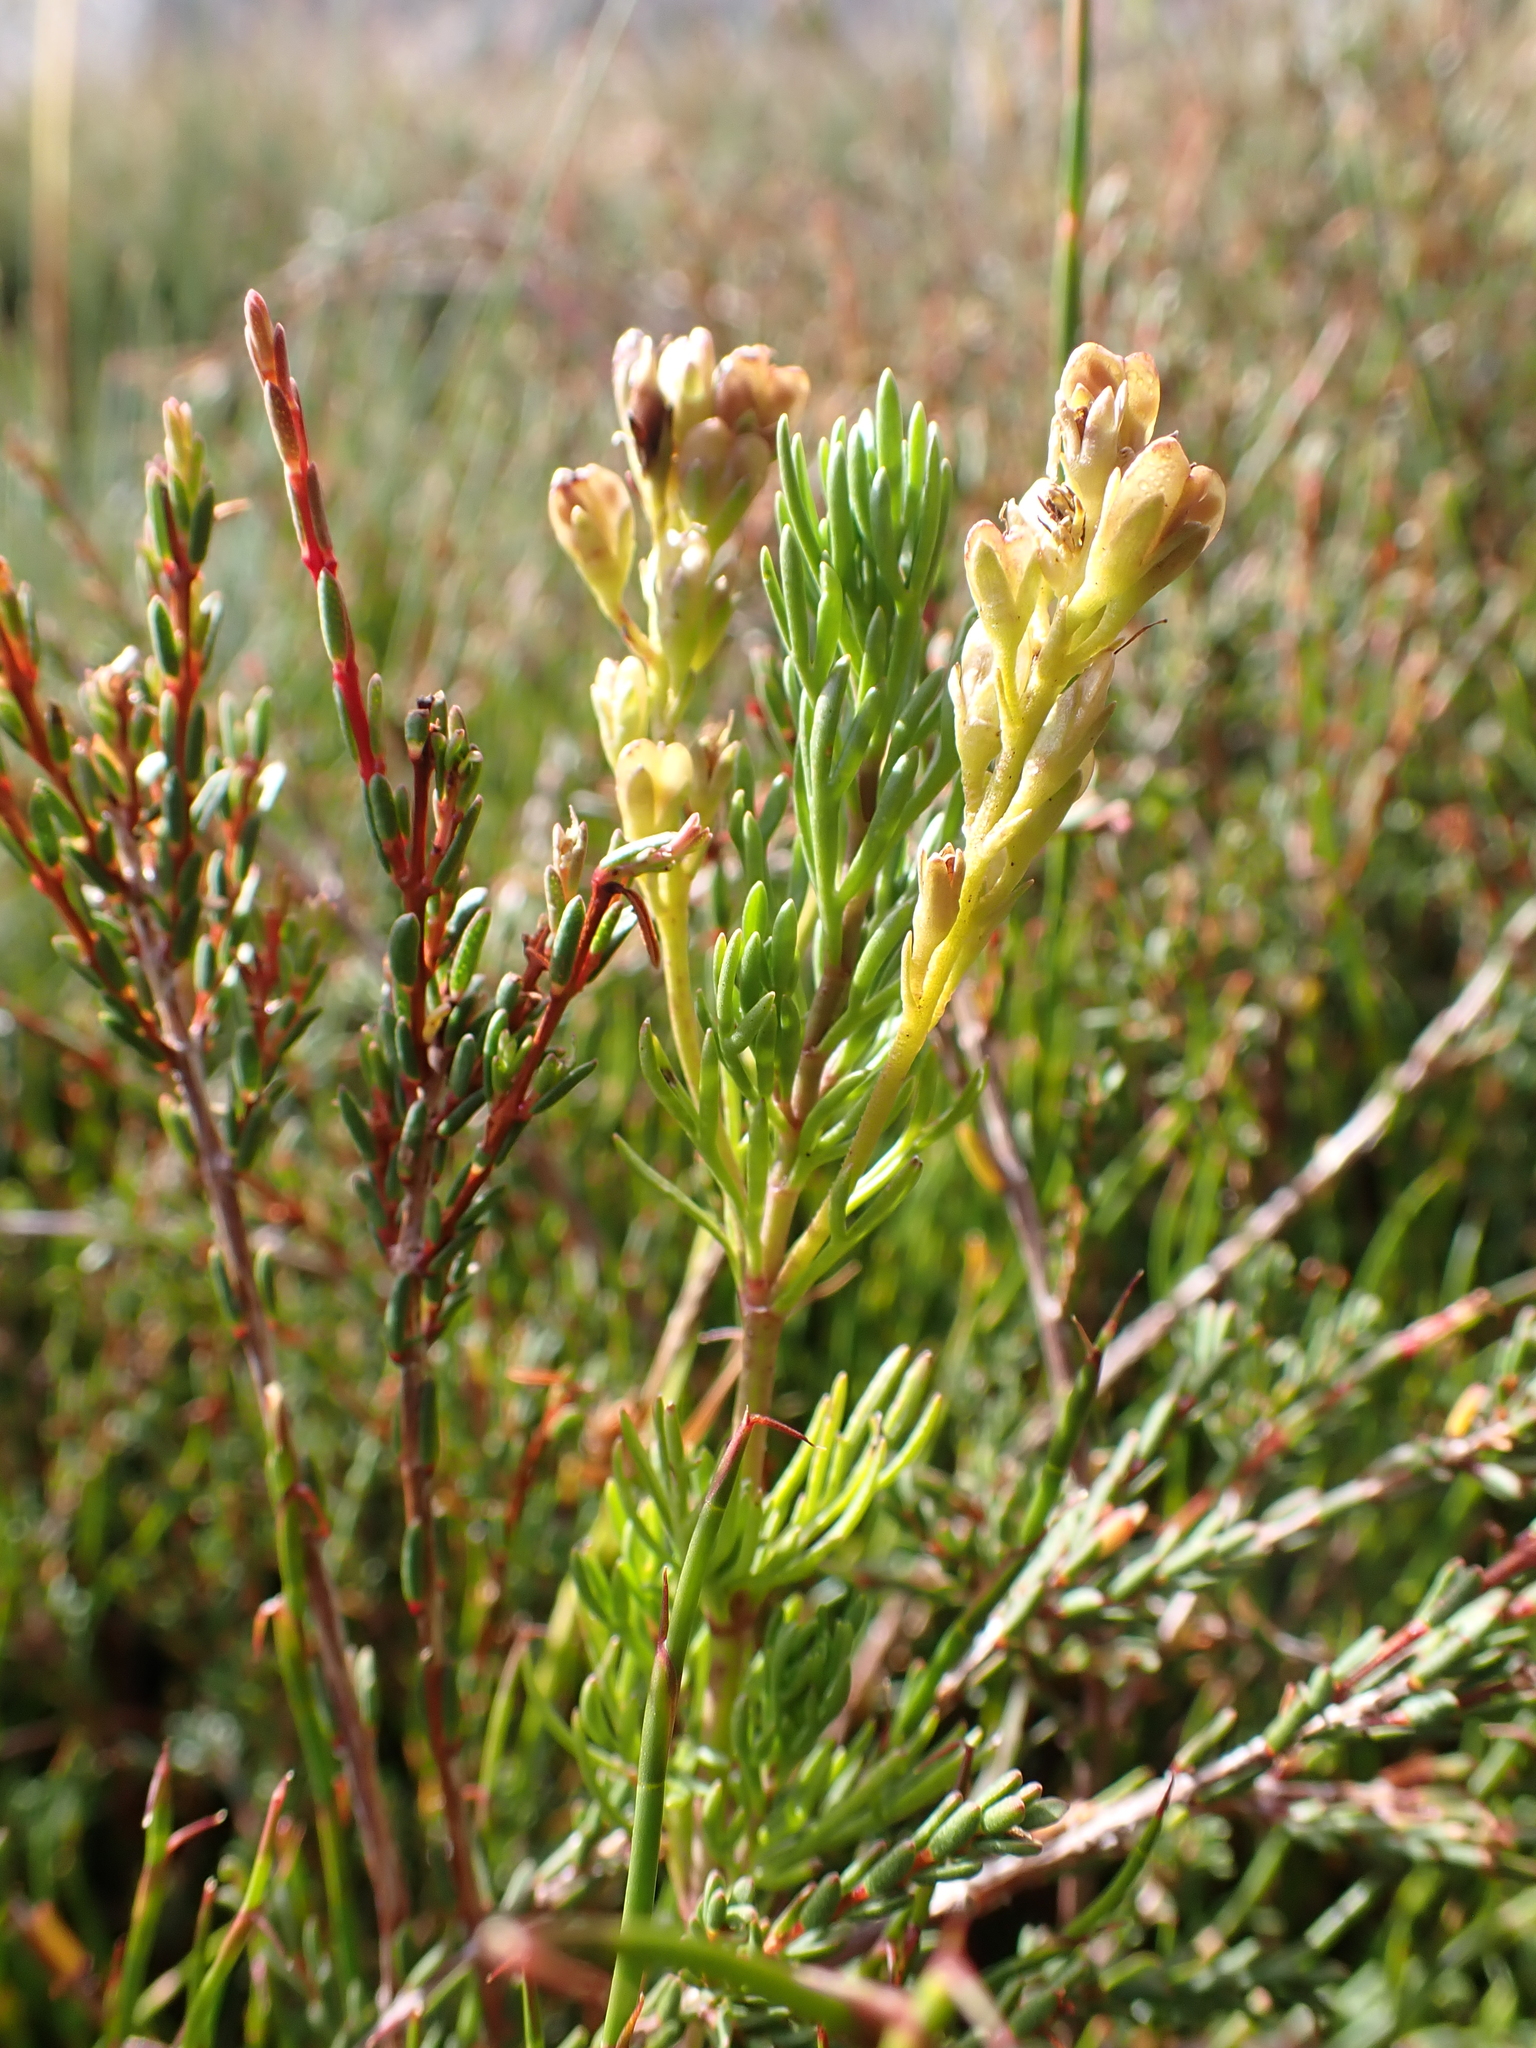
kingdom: Plantae
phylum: Tracheophyta
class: Magnoliopsida
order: Lamiales
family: Plantaginaceae
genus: Veronica
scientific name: Veronica nivea
